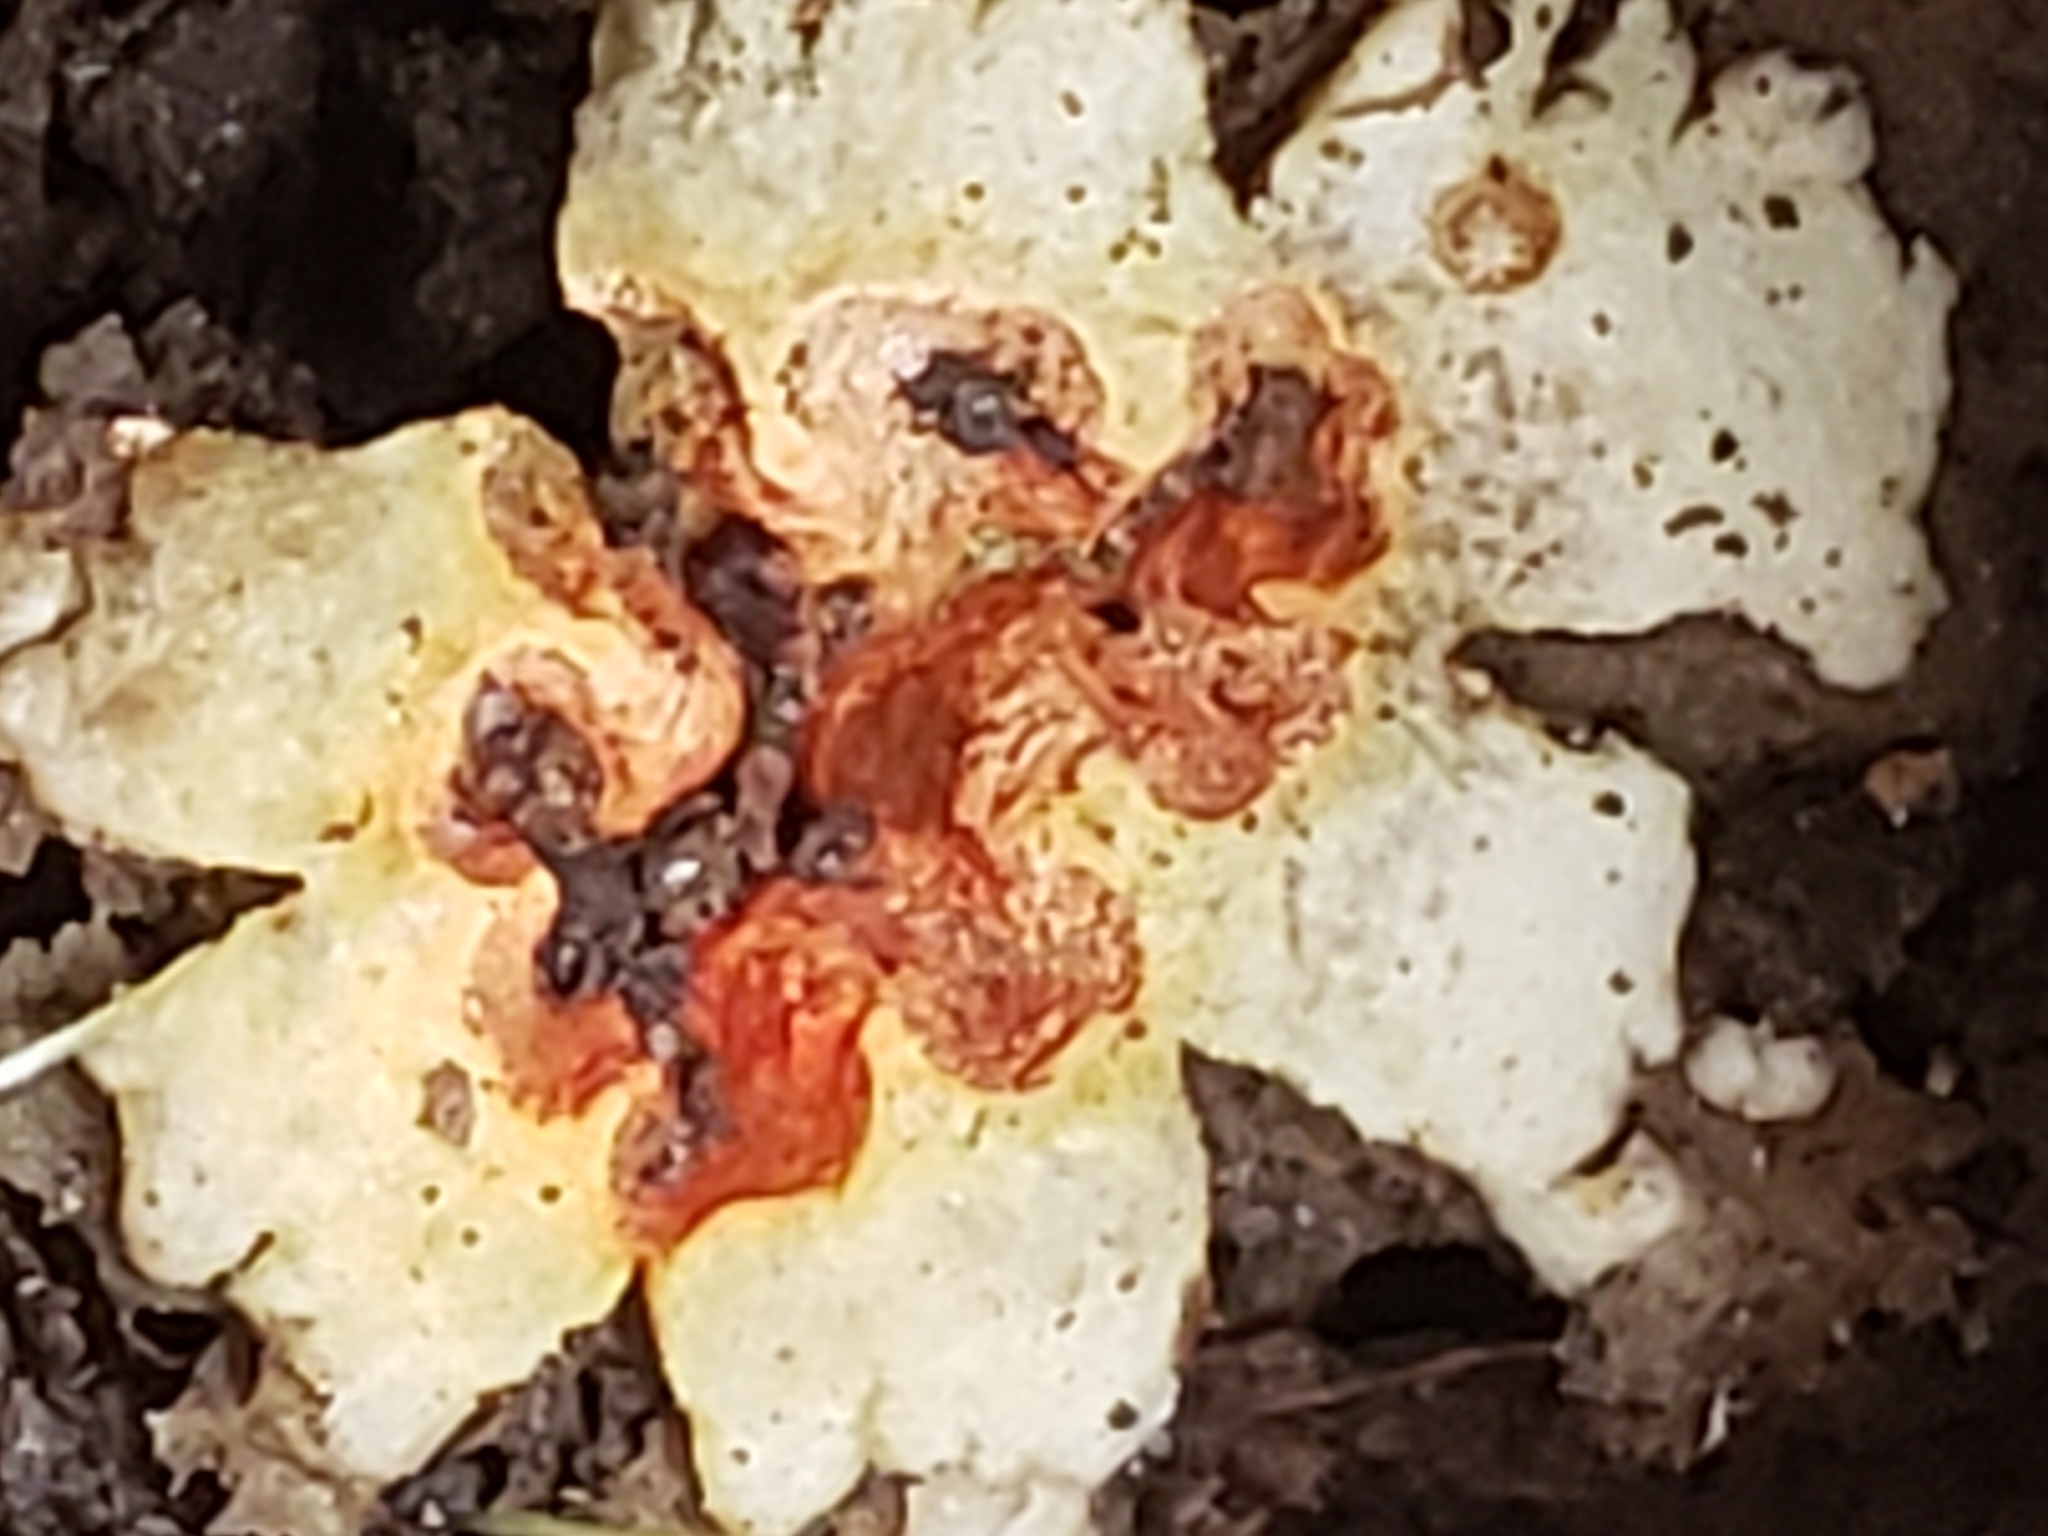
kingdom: Fungi
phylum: Basidiomycota
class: Agaricomycetes
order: Boletales
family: Calostomataceae
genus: Calostoma
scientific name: Calostoma ravenelii
